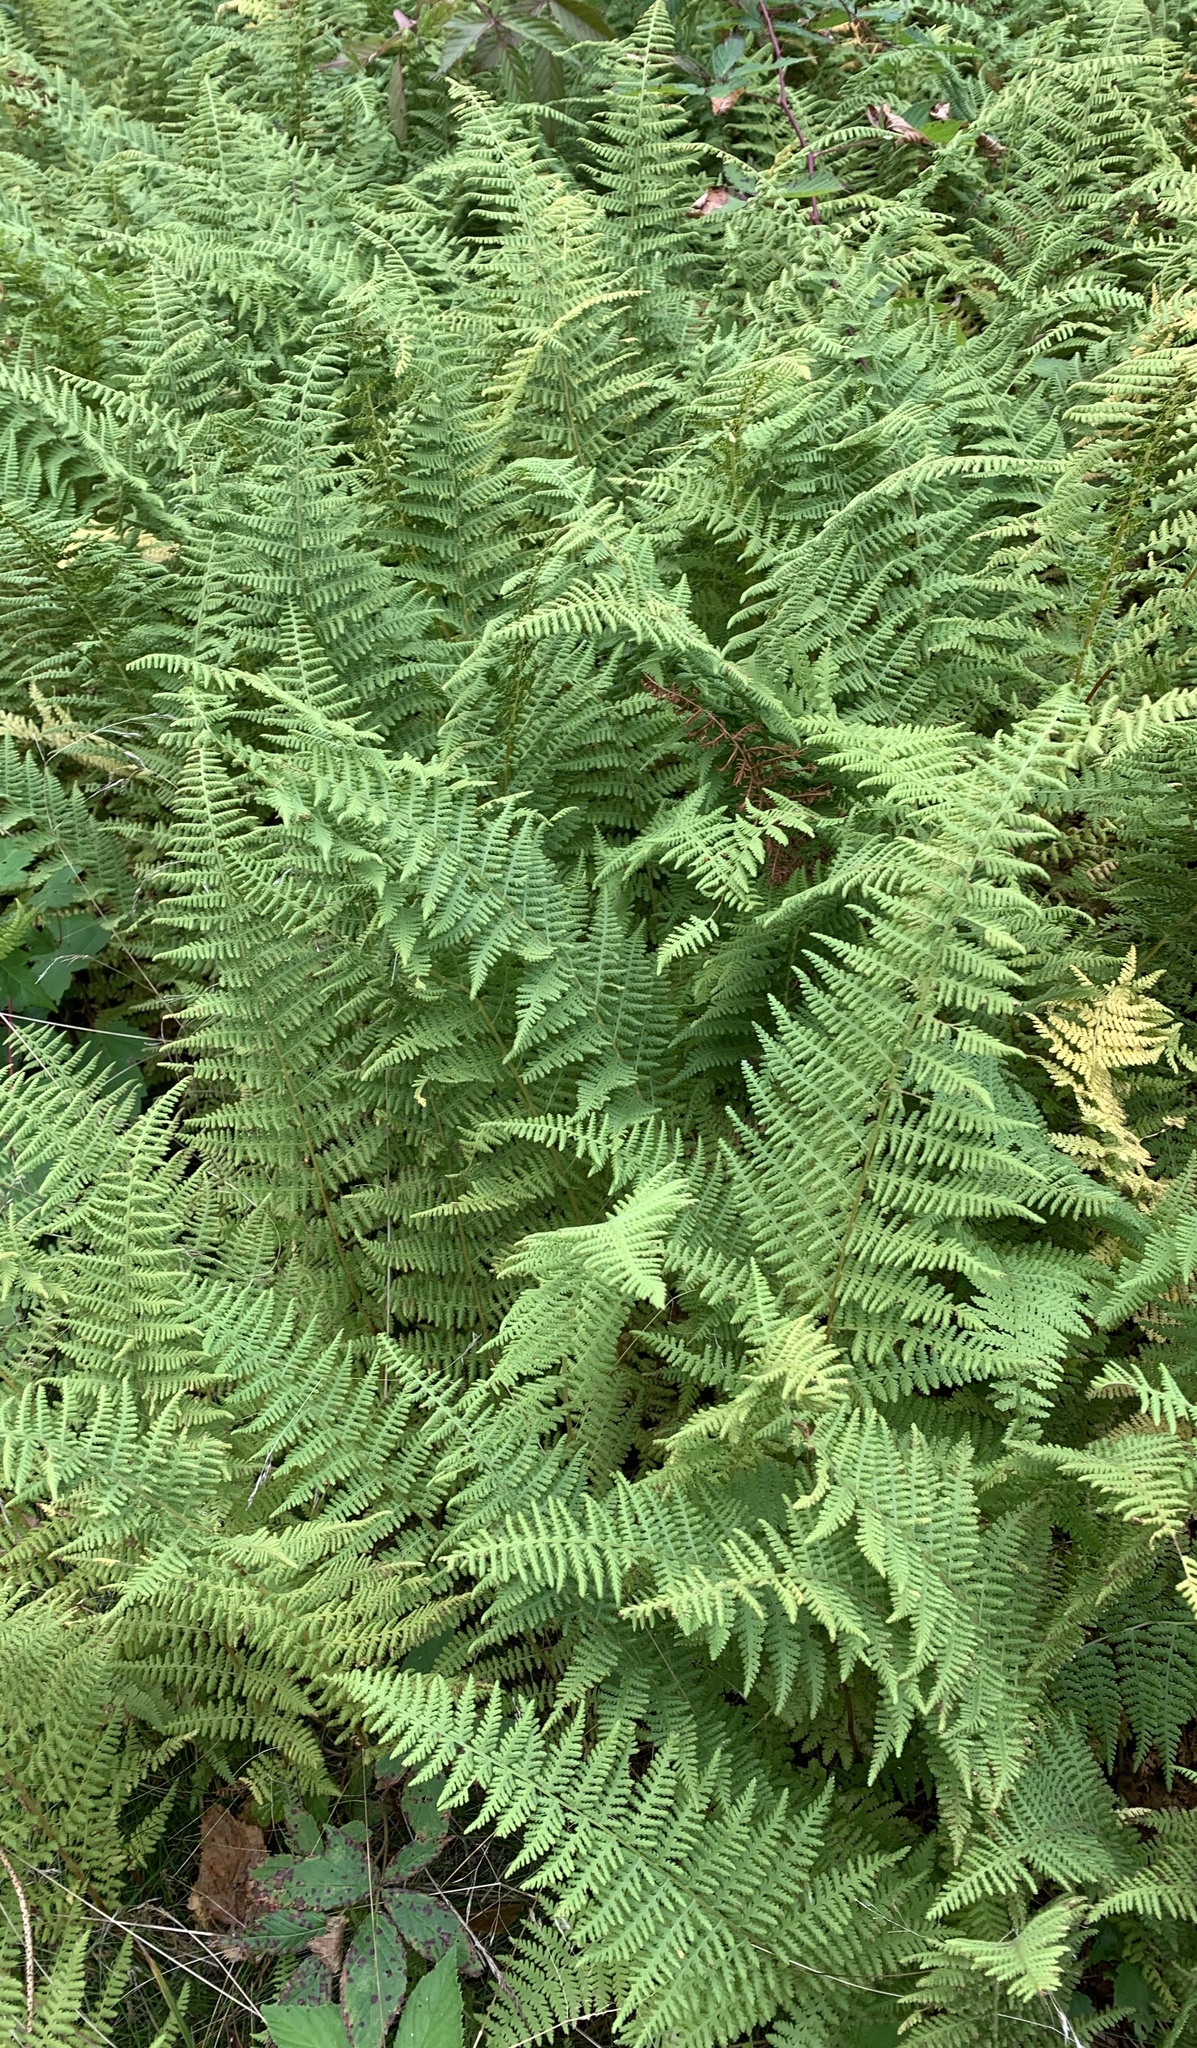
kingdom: Plantae
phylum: Tracheophyta
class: Polypodiopsida
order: Polypodiales
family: Dennstaedtiaceae
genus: Sitobolium
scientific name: Sitobolium punctilobum
